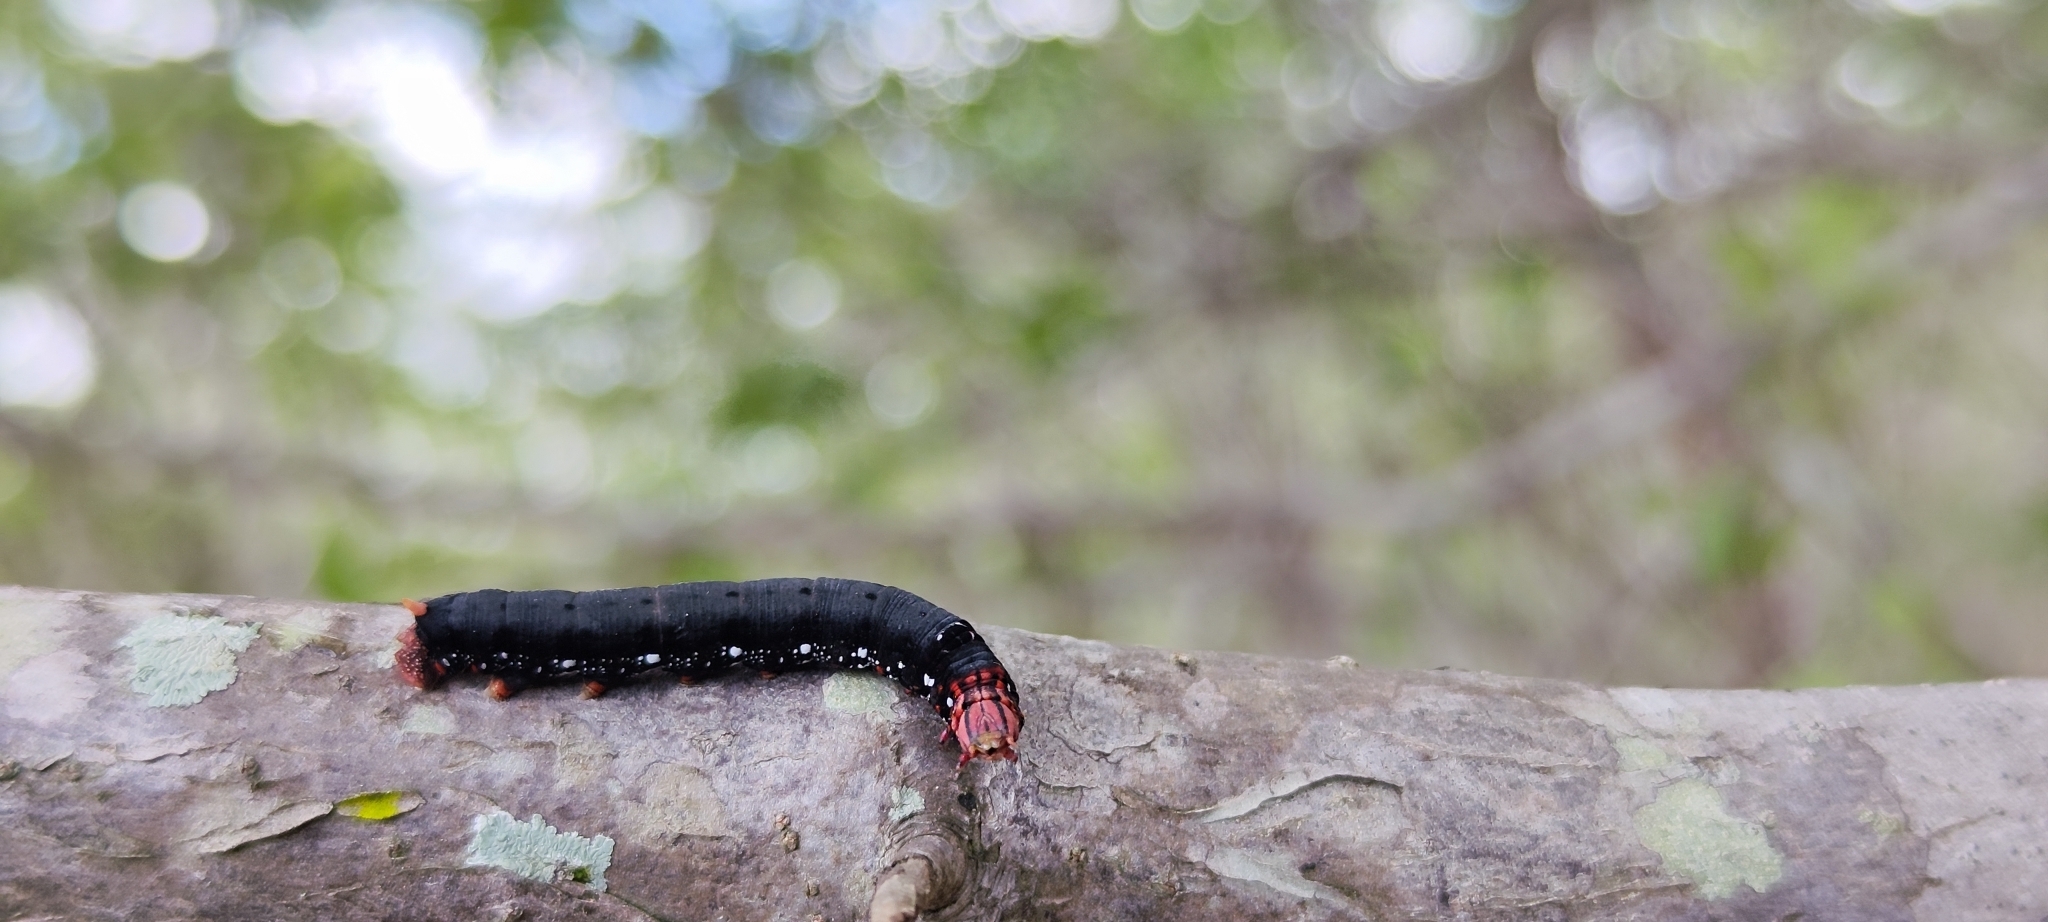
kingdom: Animalia
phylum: Arthropoda
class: Insecta
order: Lepidoptera
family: Sphingidae
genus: Erinnyis
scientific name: Erinnyis ello
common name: Ello sphinx
